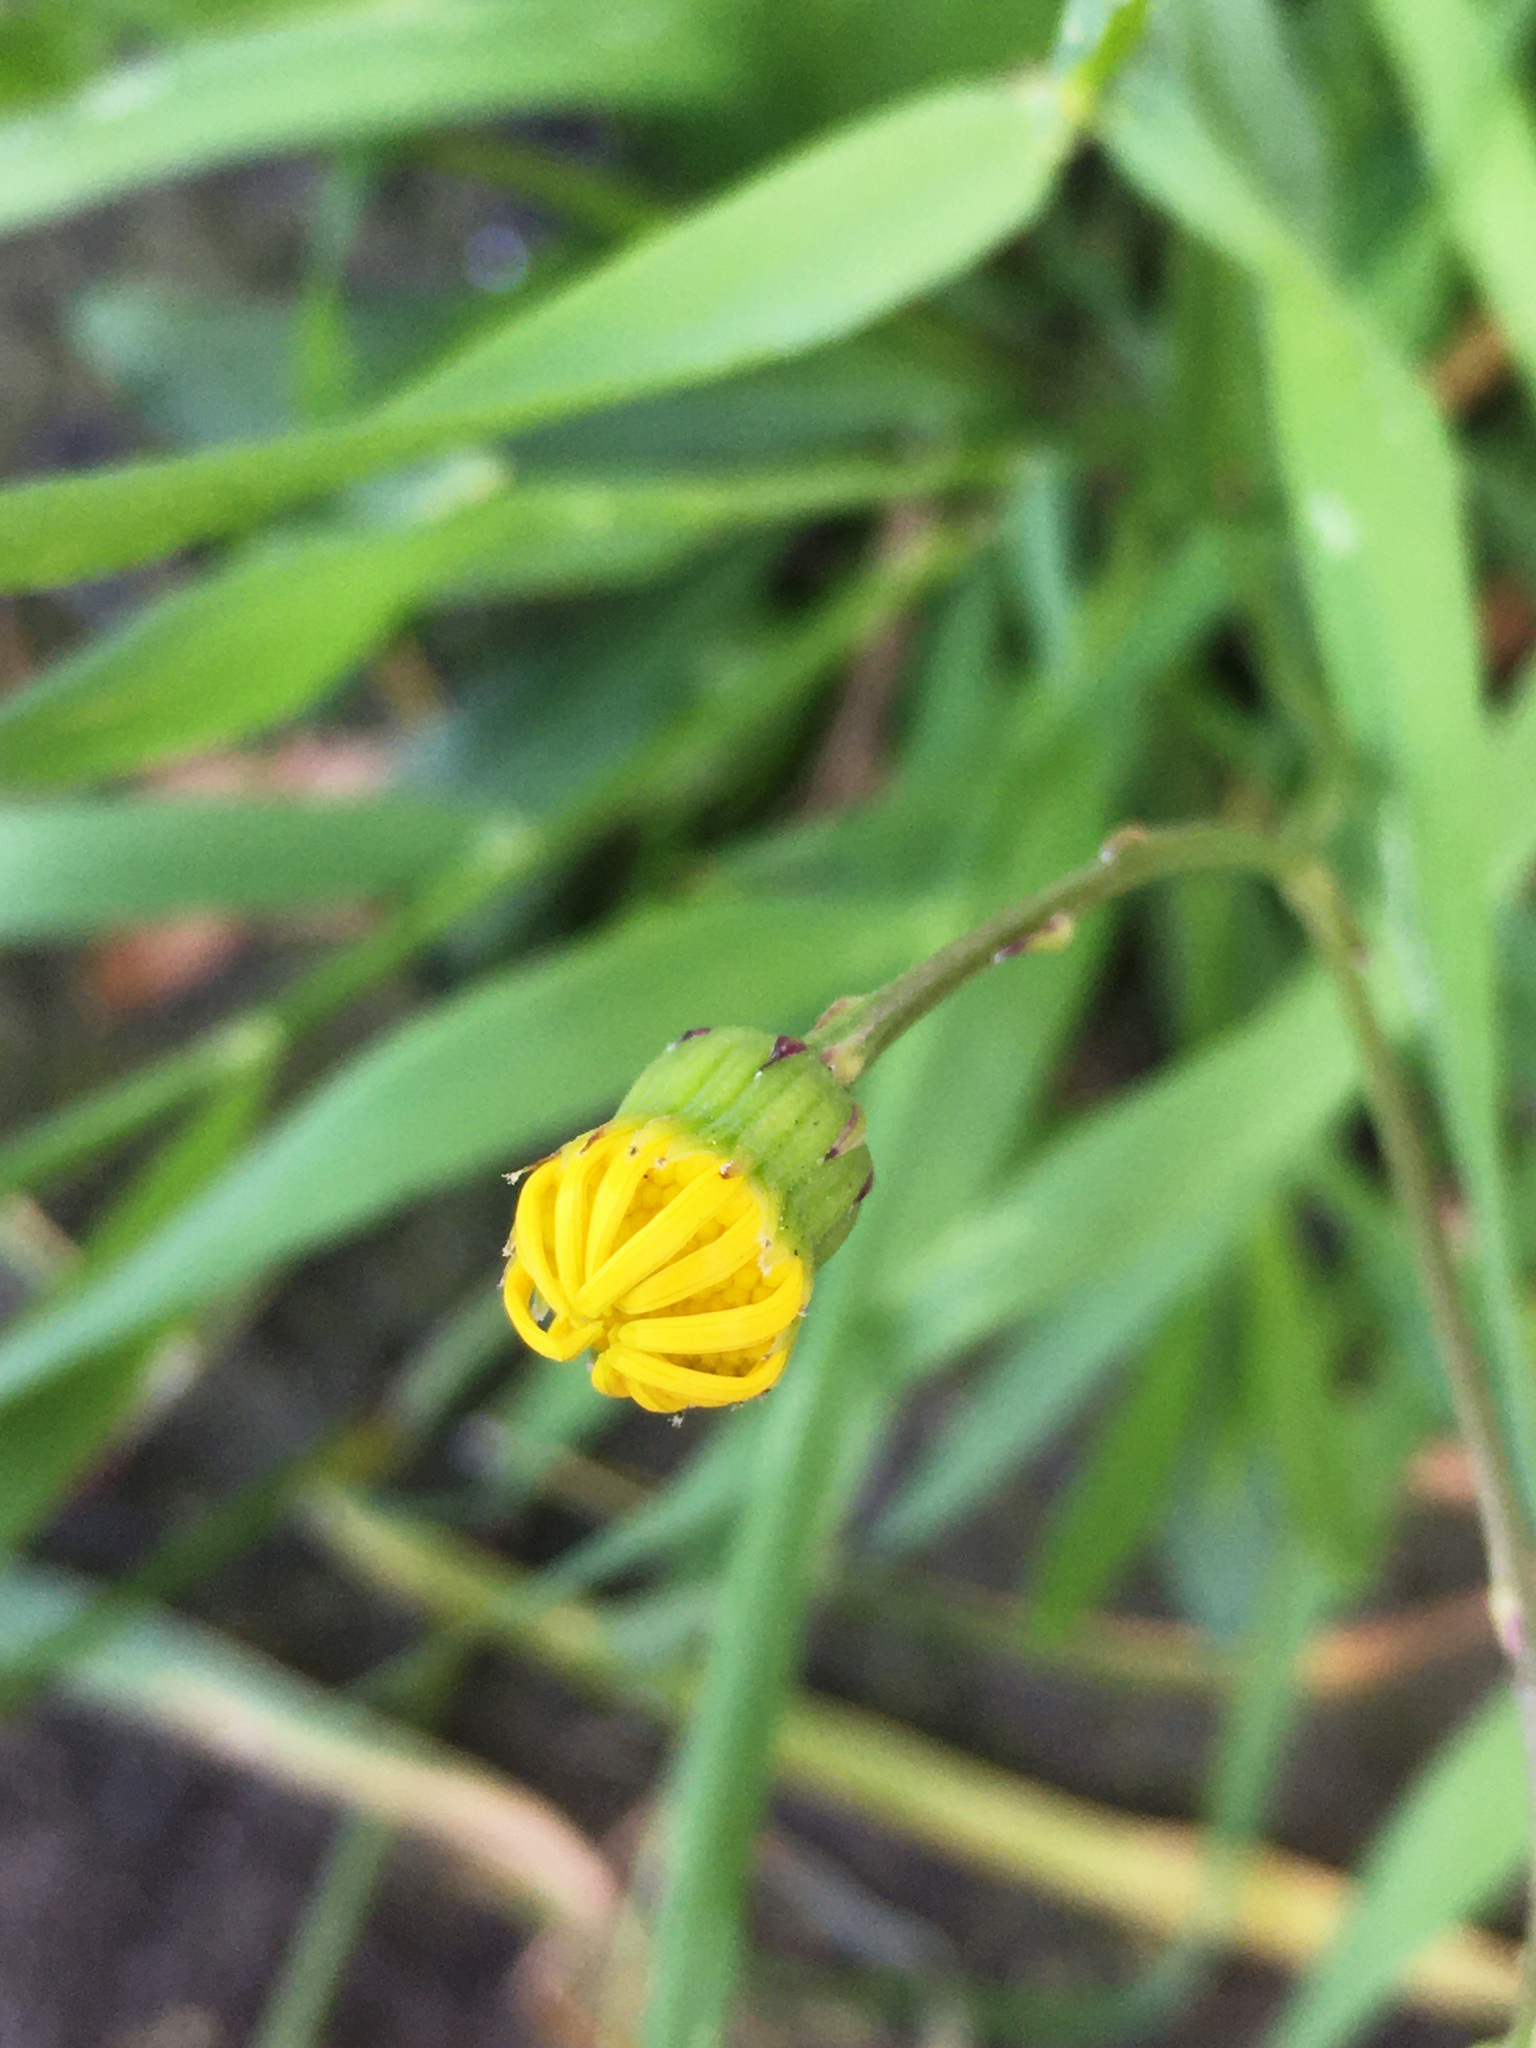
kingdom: Plantae
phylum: Tracheophyta
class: Magnoliopsida
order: Asterales
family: Asteraceae
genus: Senecio
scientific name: Senecio skirrhodon
